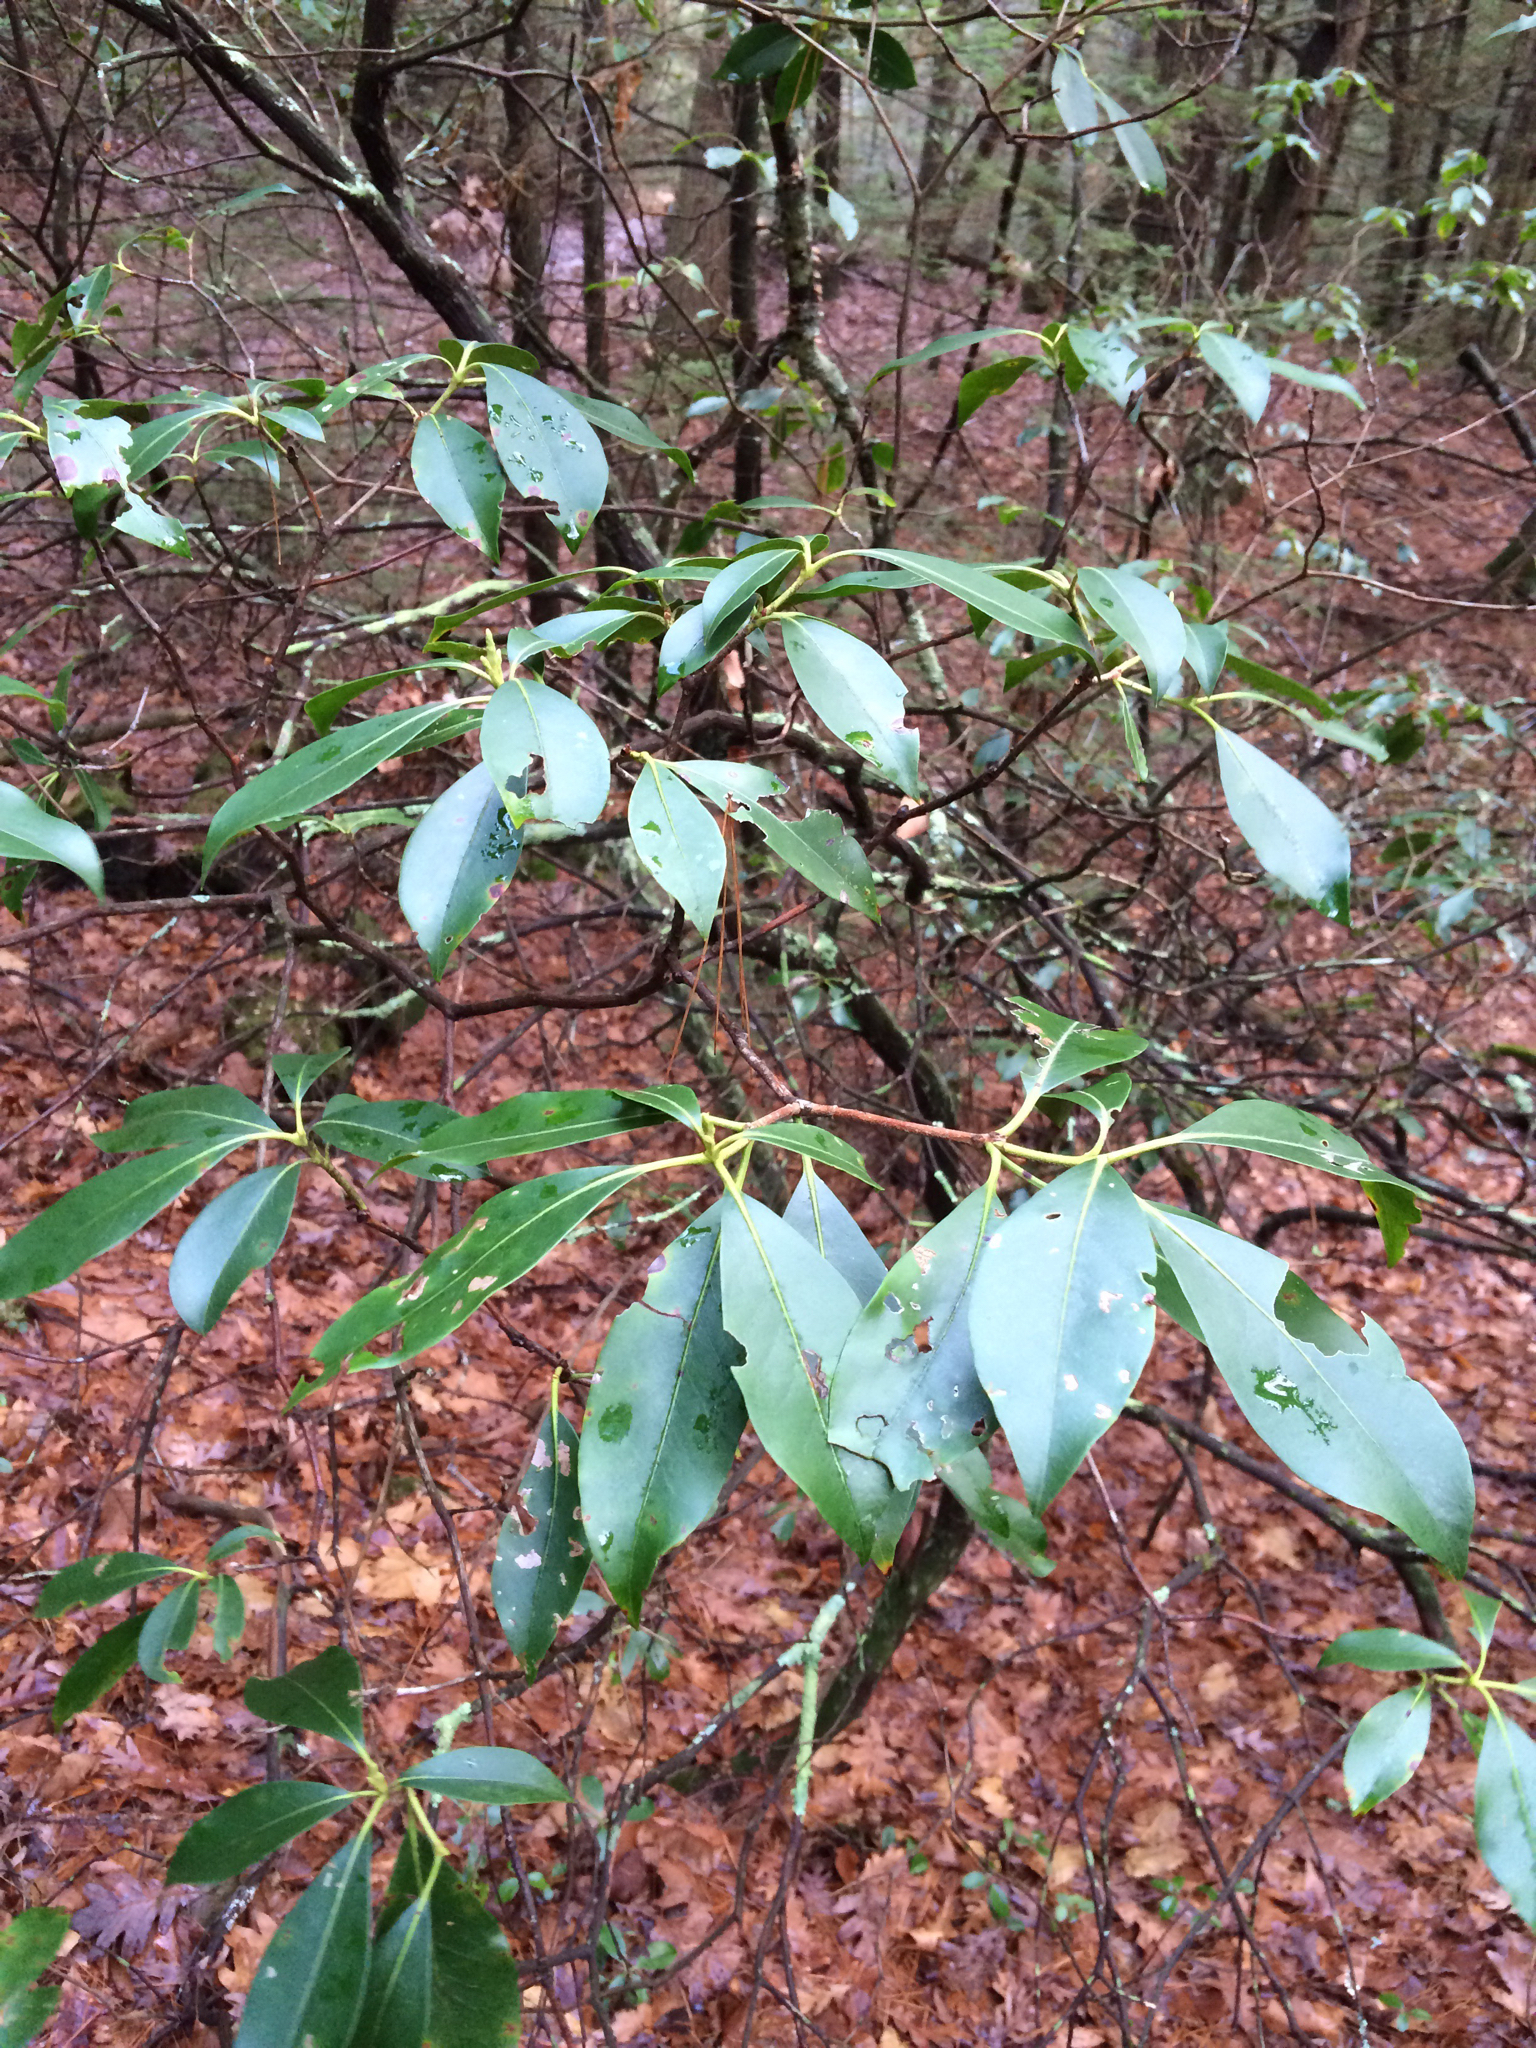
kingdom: Plantae
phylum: Tracheophyta
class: Magnoliopsida
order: Ericales
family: Ericaceae
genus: Kalmia
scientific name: Kalmia latifolia
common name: Mountain-laurel
